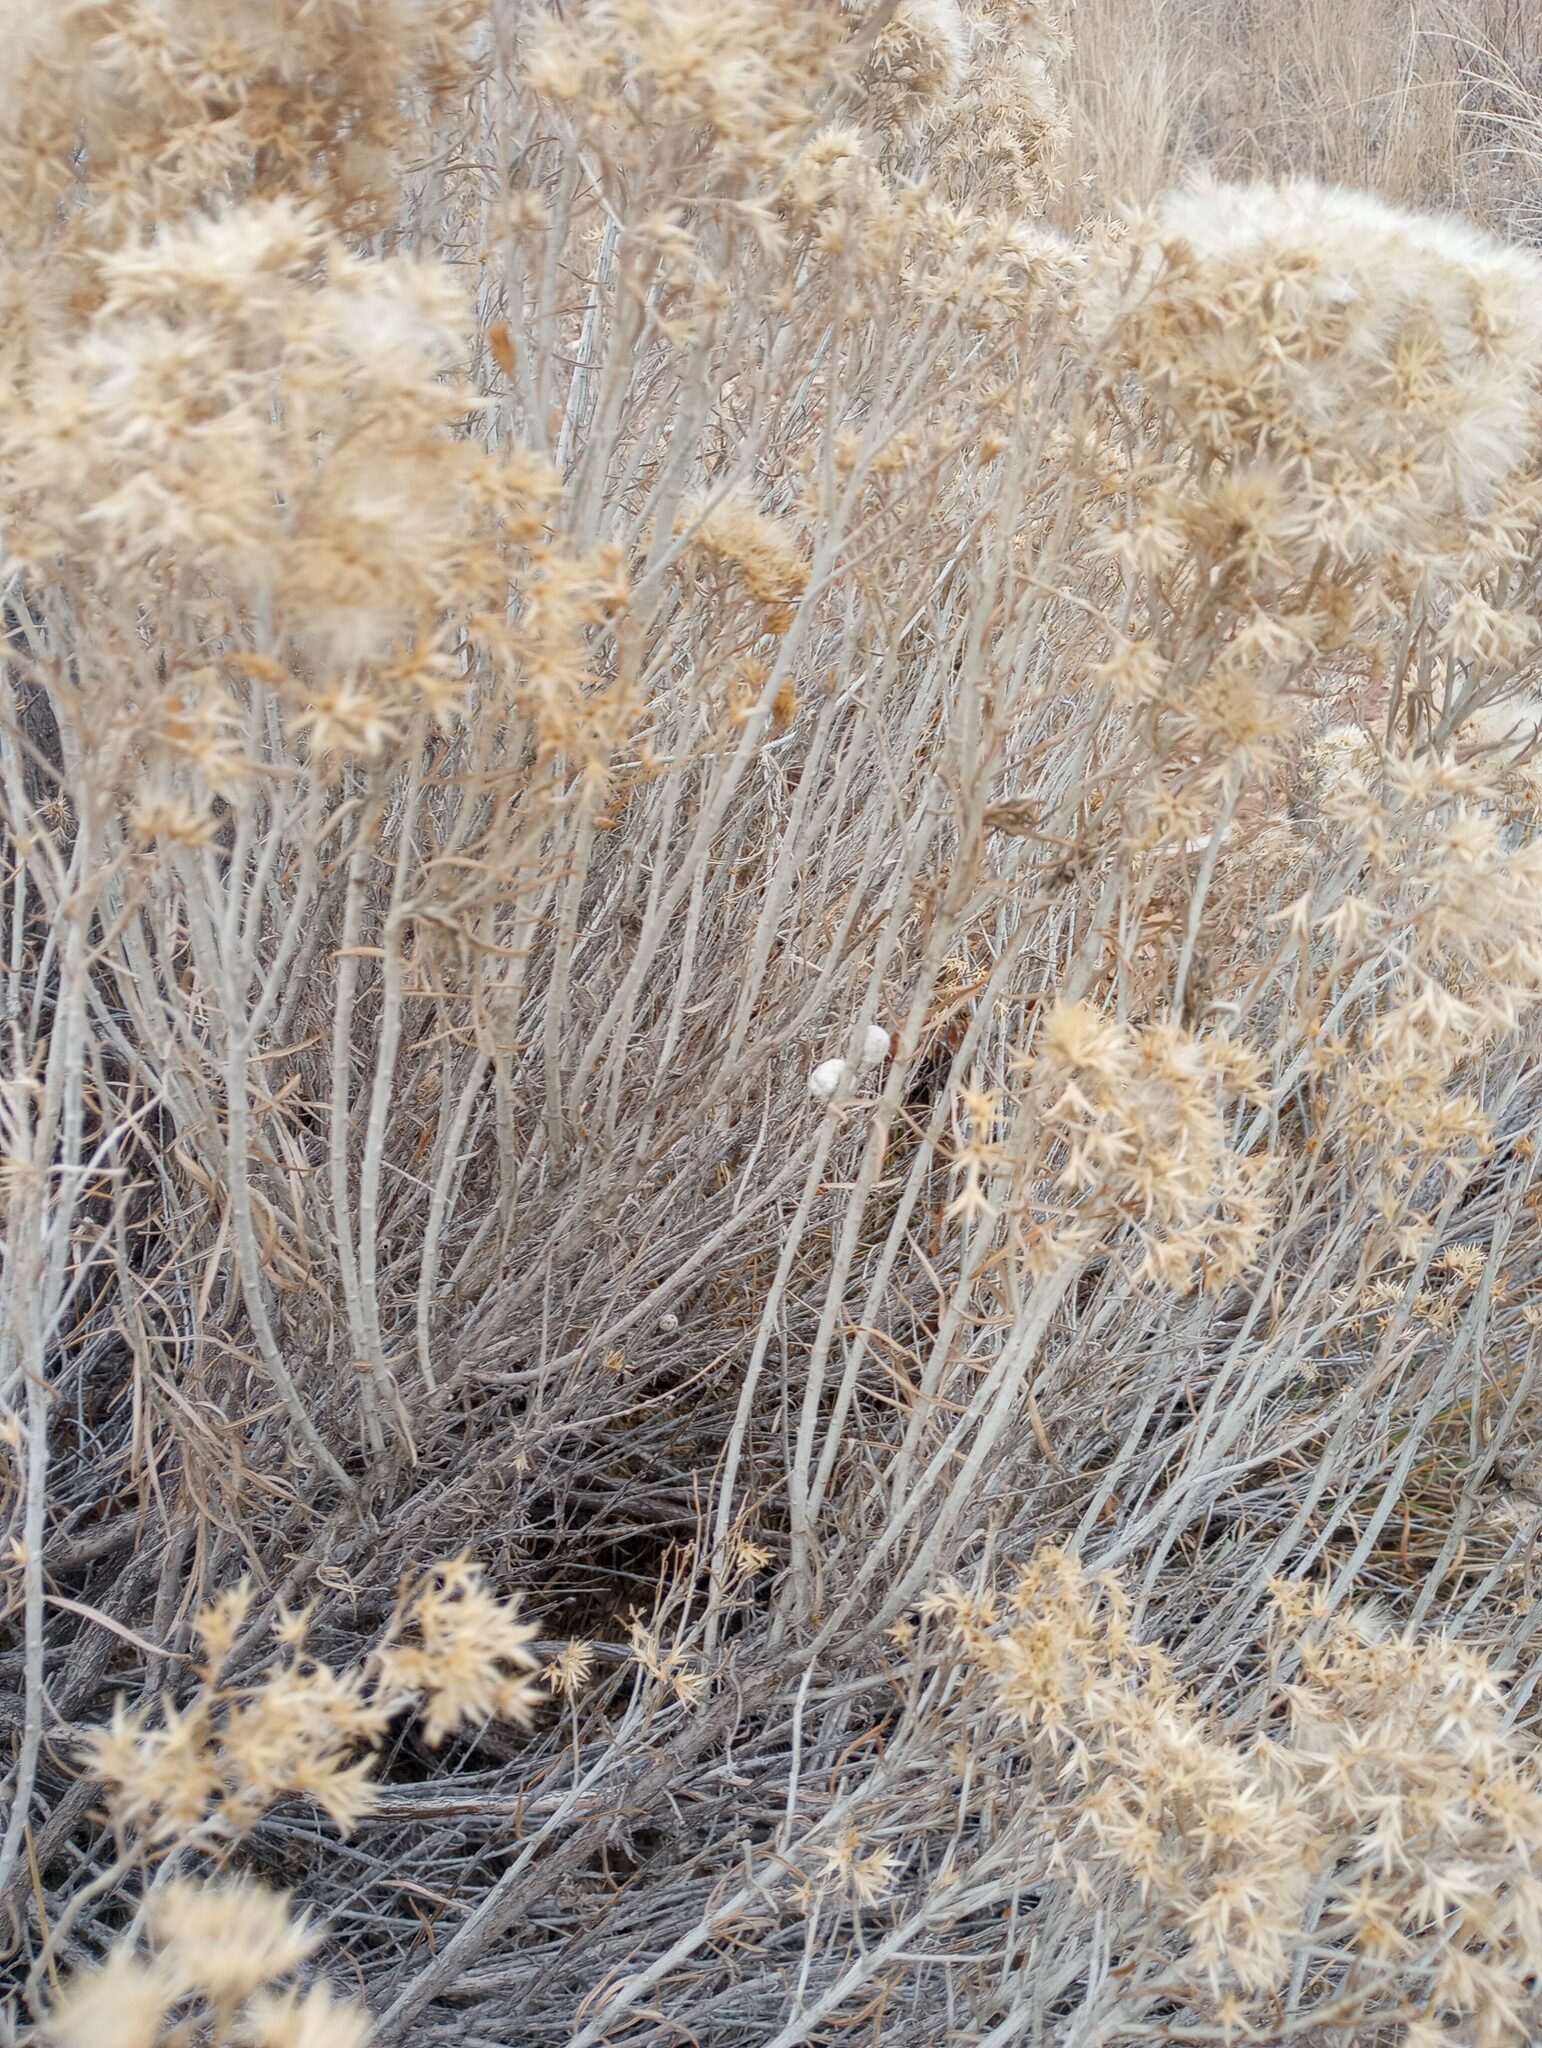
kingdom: Animalia
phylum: Arthropoda
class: Insecta
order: Diptera
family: Tephritidae
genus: Aciurina
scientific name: Aciurina bigeloviae
